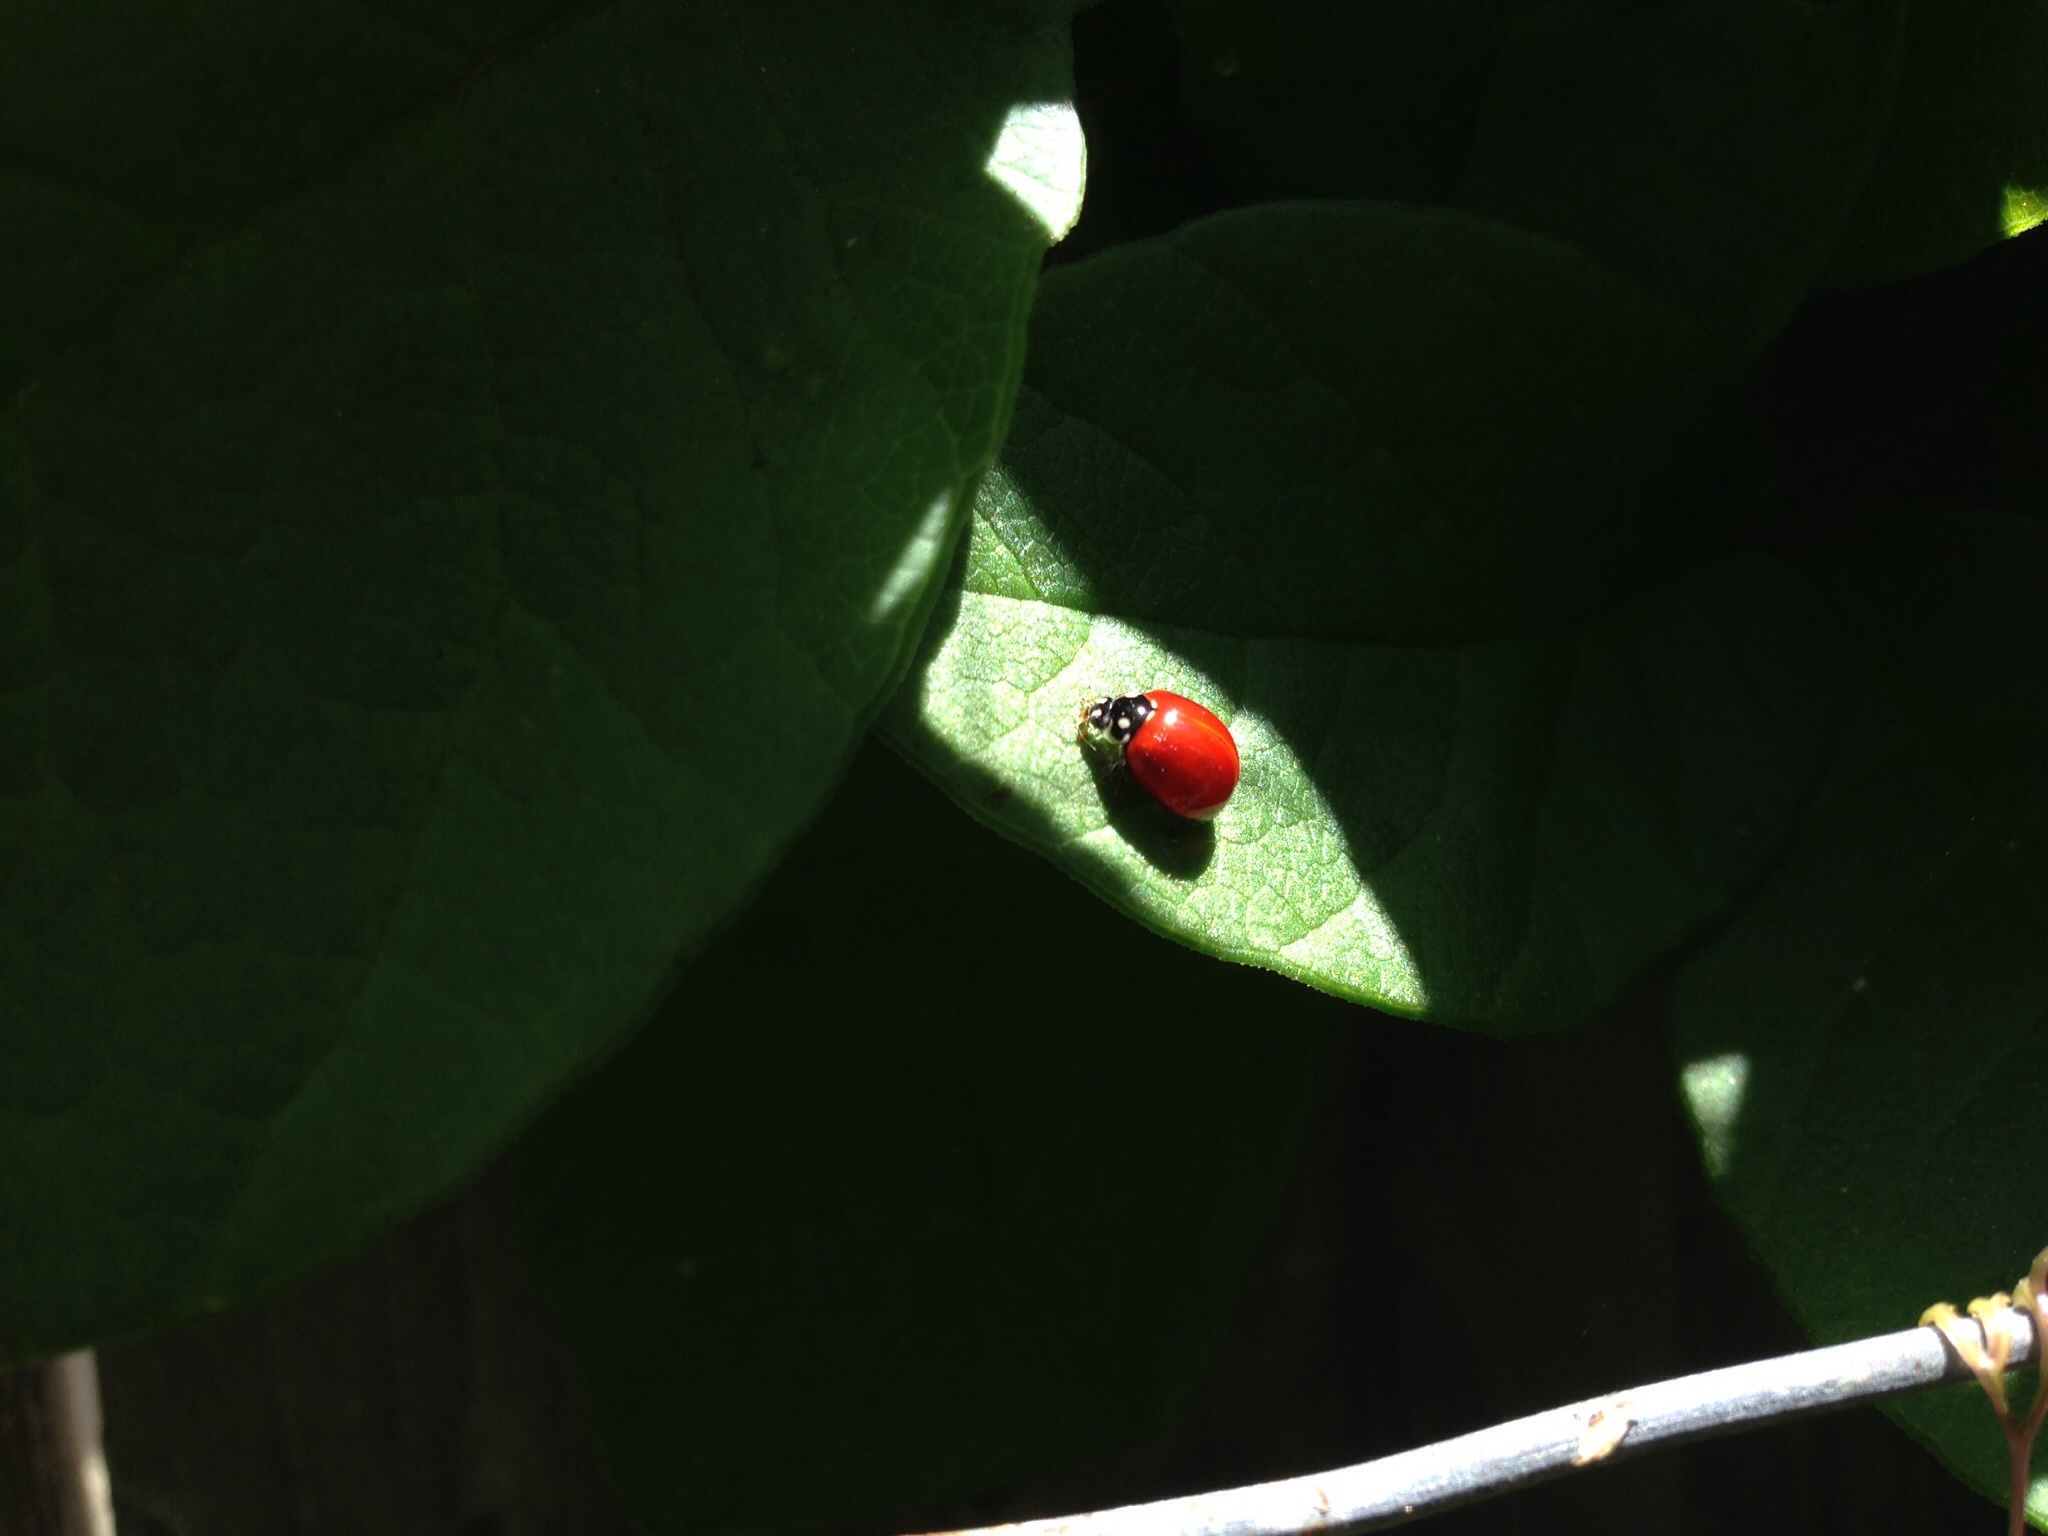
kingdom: Animalia
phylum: Arthropoda
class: Insecta
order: Coleoptera
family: Coccinellidae
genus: Cycloneda
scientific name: Cycloneda sanguinea
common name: Ladybird beetle
